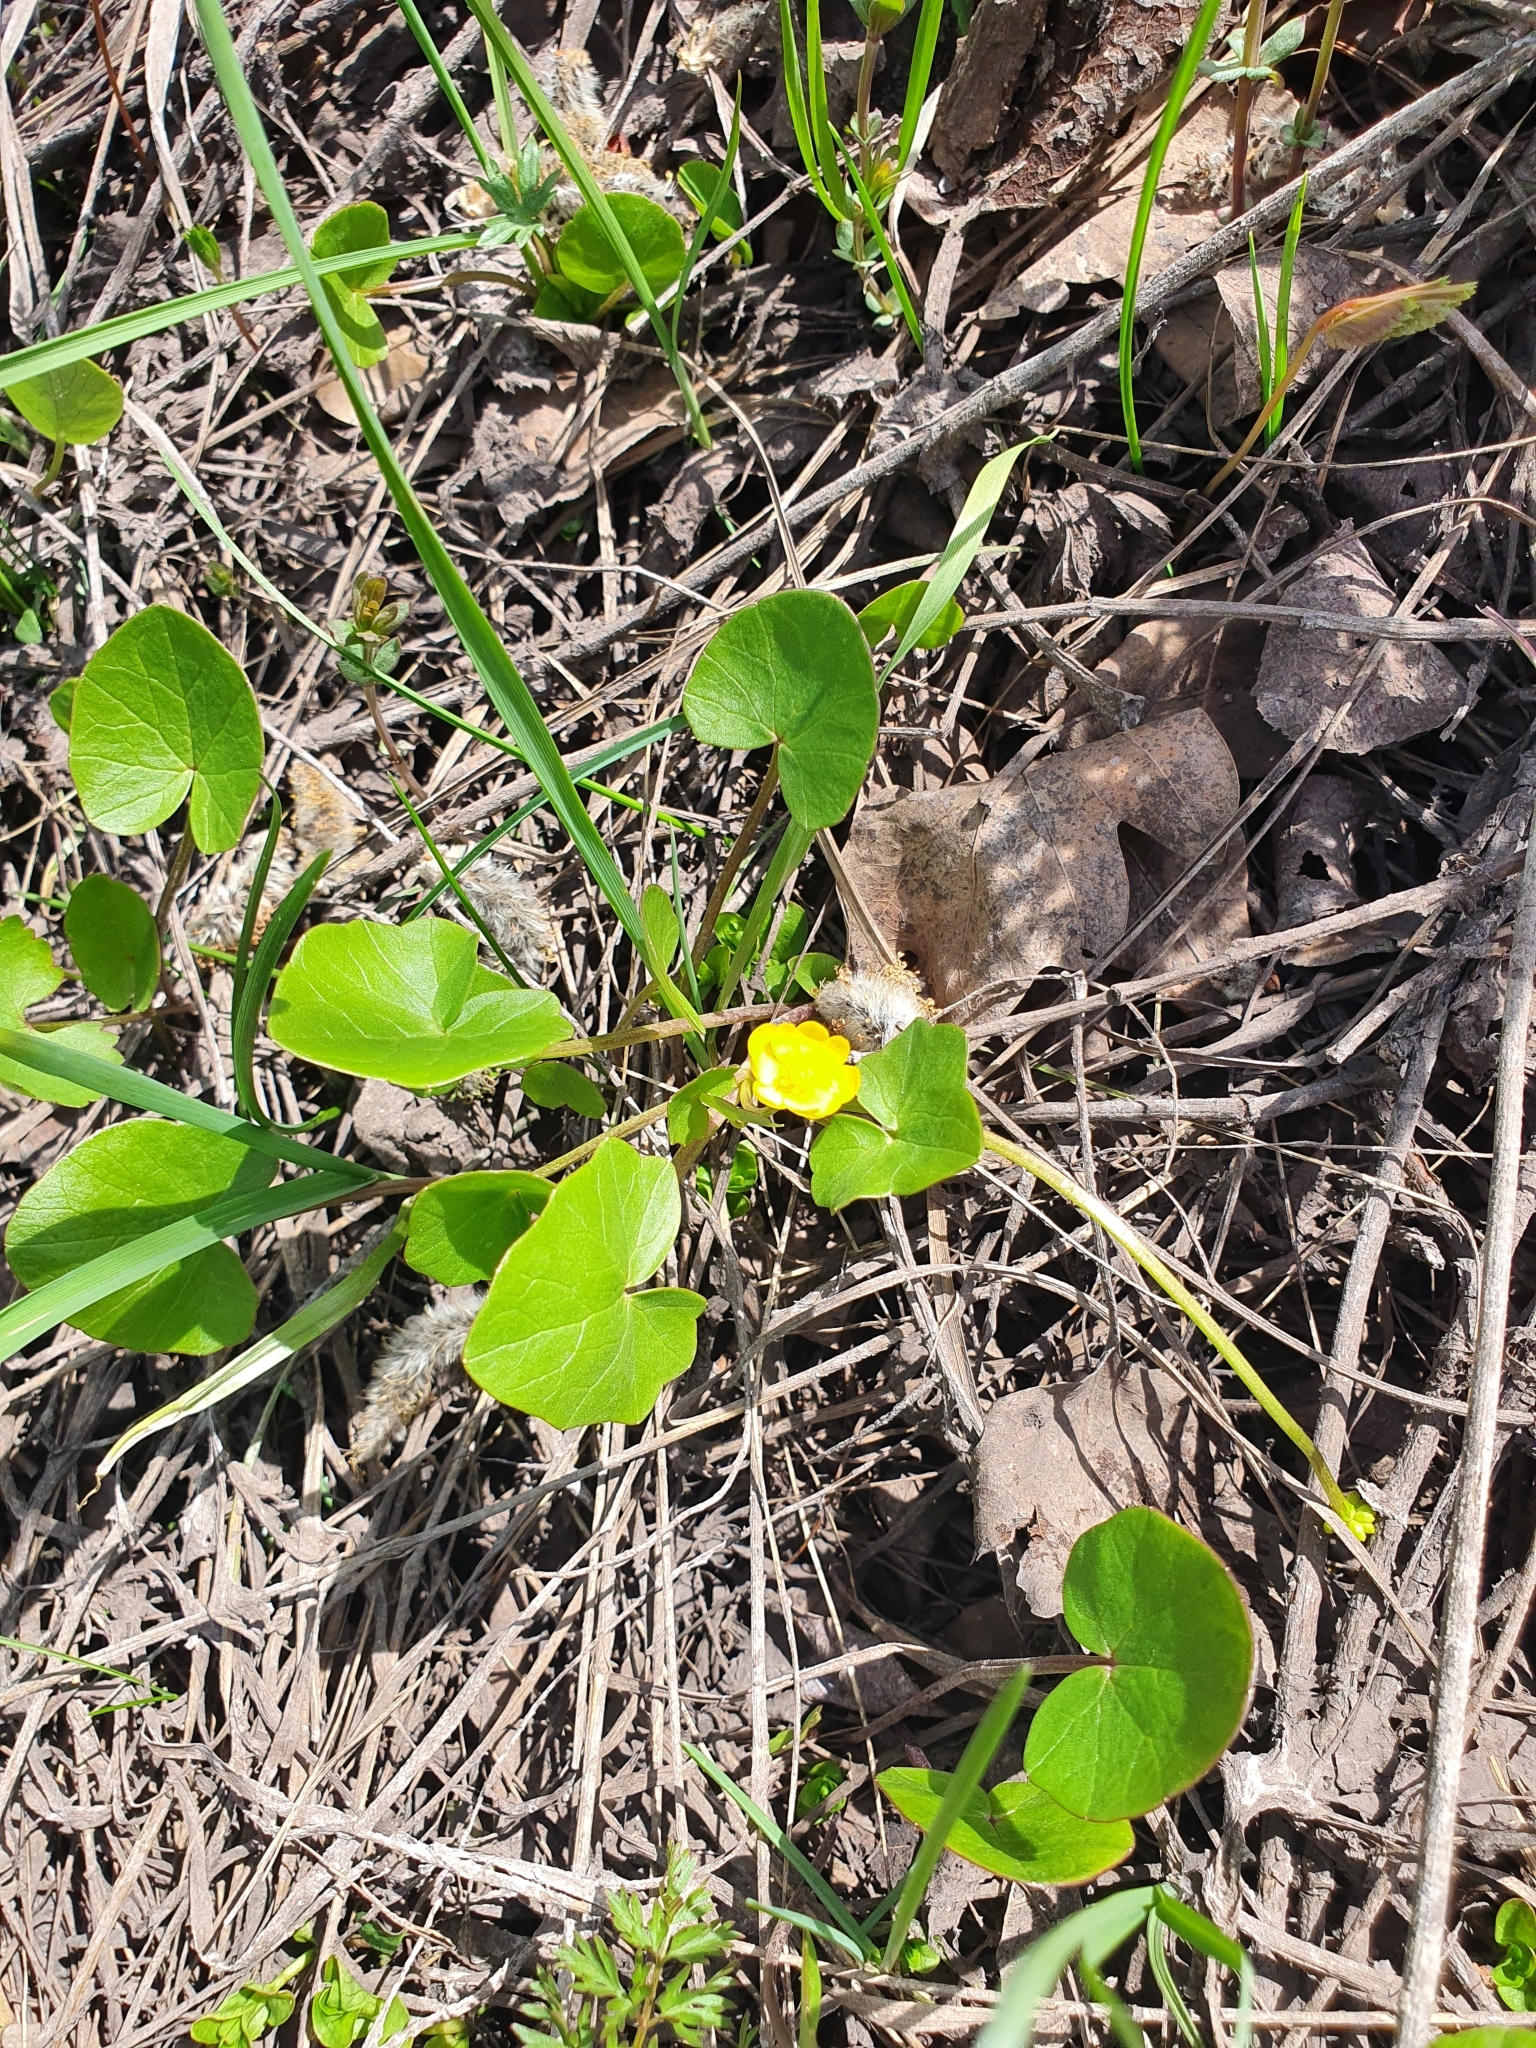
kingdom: Plantae
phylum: Tracheophyta
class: Magnoliopsida
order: Ranunculales
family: Ranunculaceae
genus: Ficaria
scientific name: Ficaria
